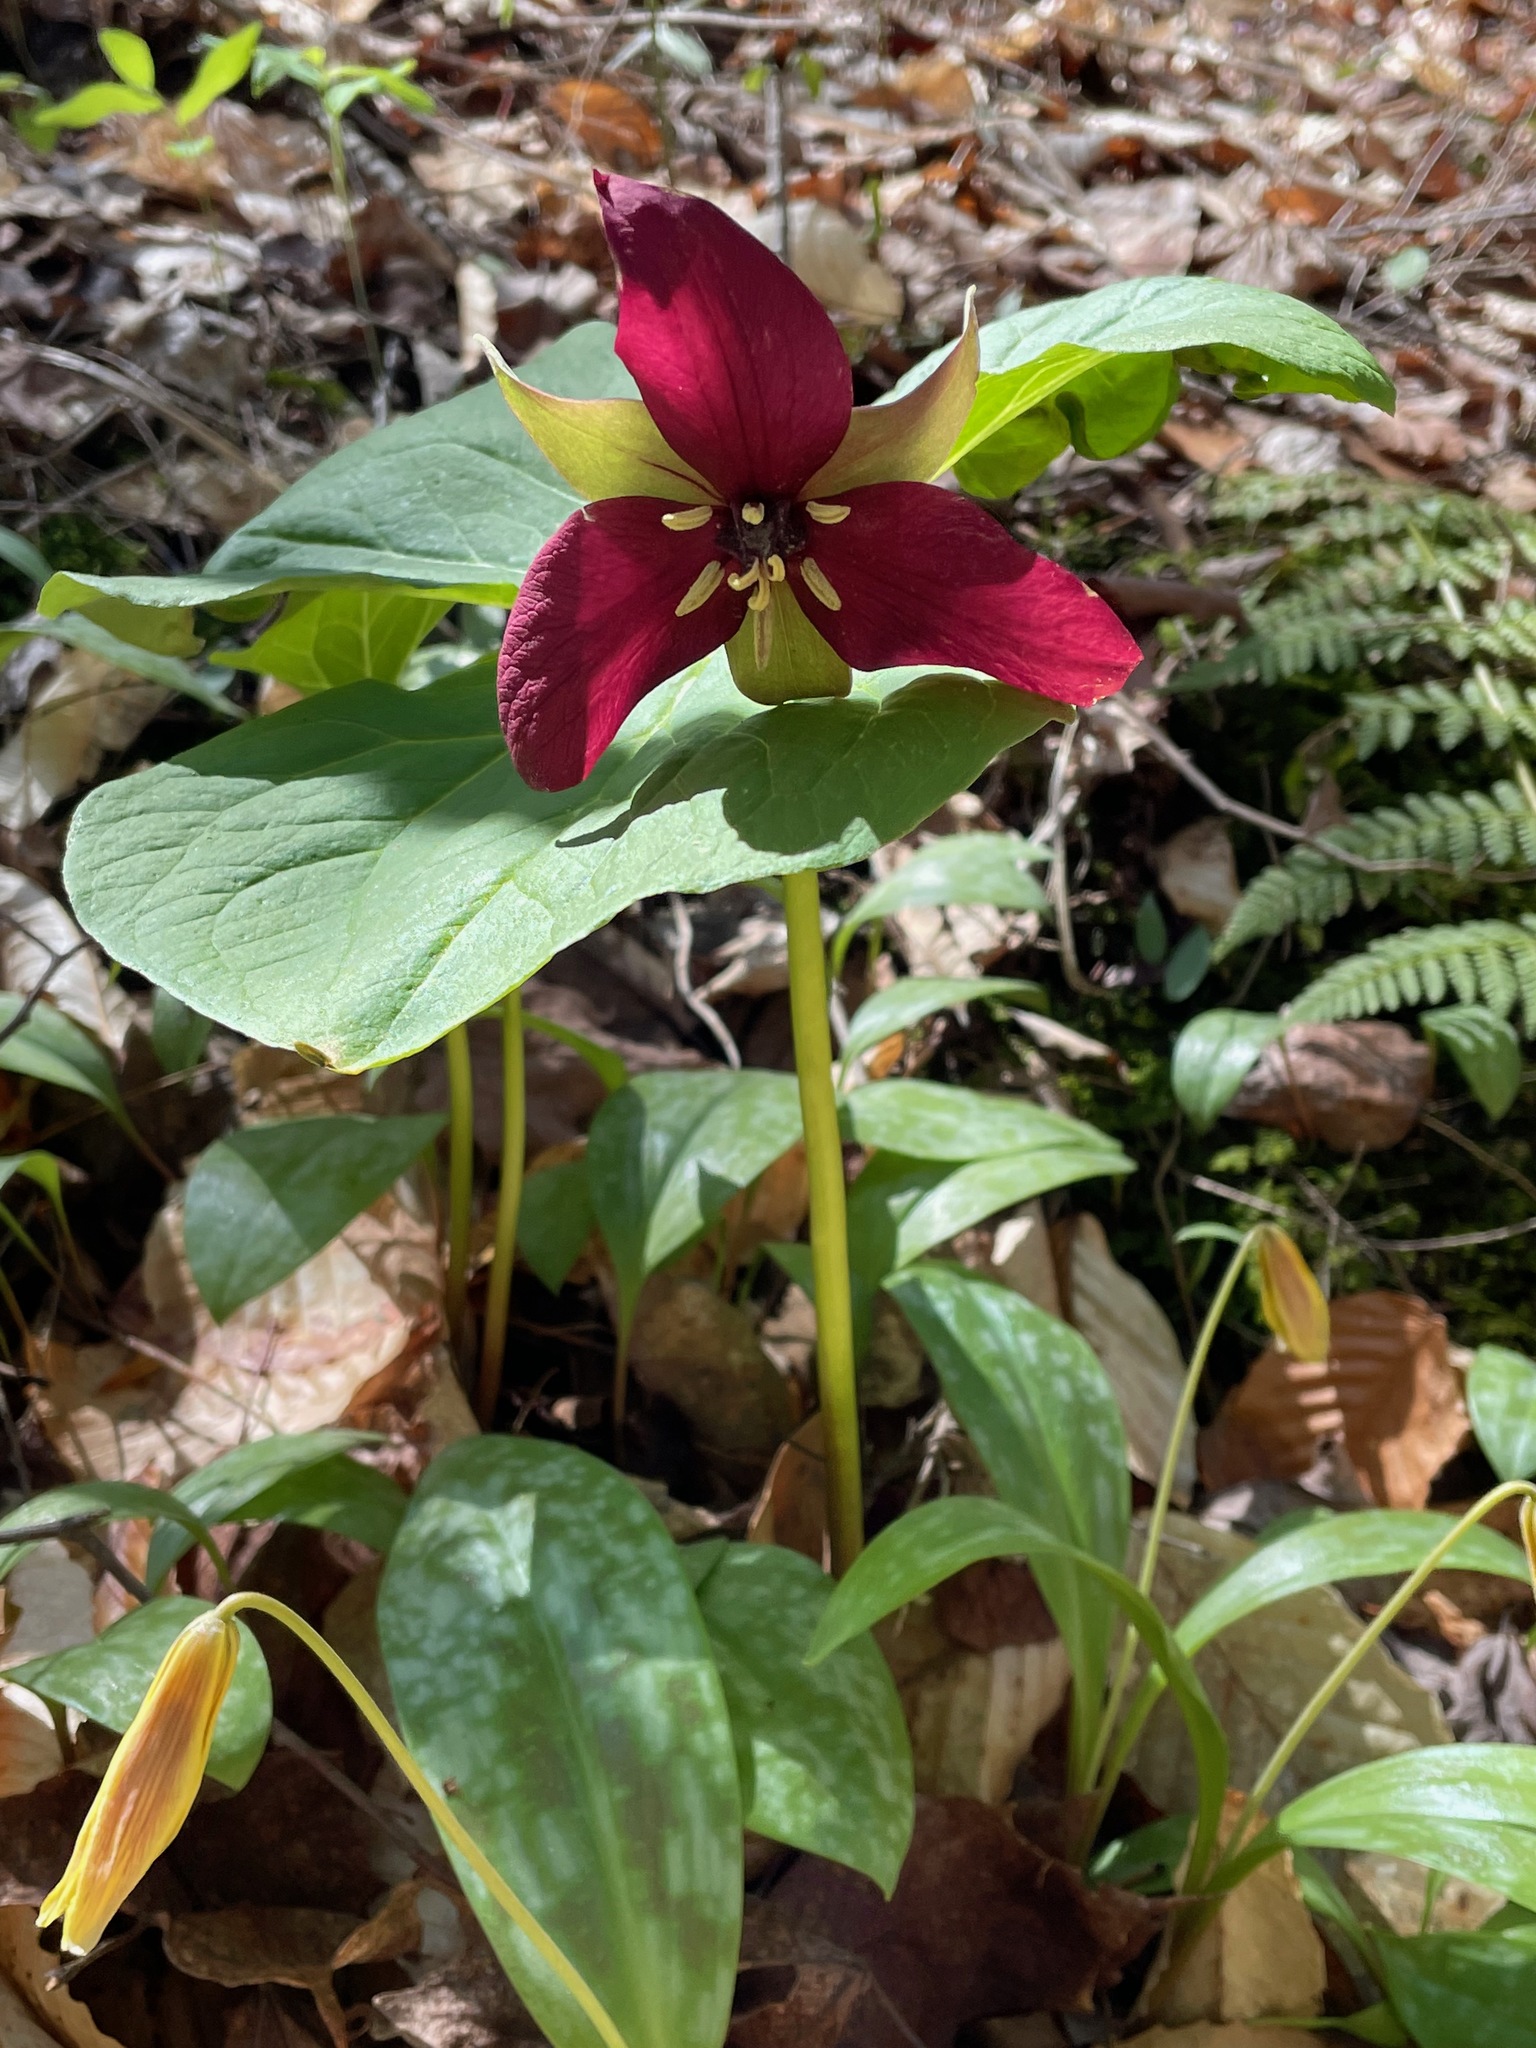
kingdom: Plantae
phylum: Tracheophyta
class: Liliopsida
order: Liliales
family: Melanthiaceae
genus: Trillium
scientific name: Trillium erectum
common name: Purple trillium
